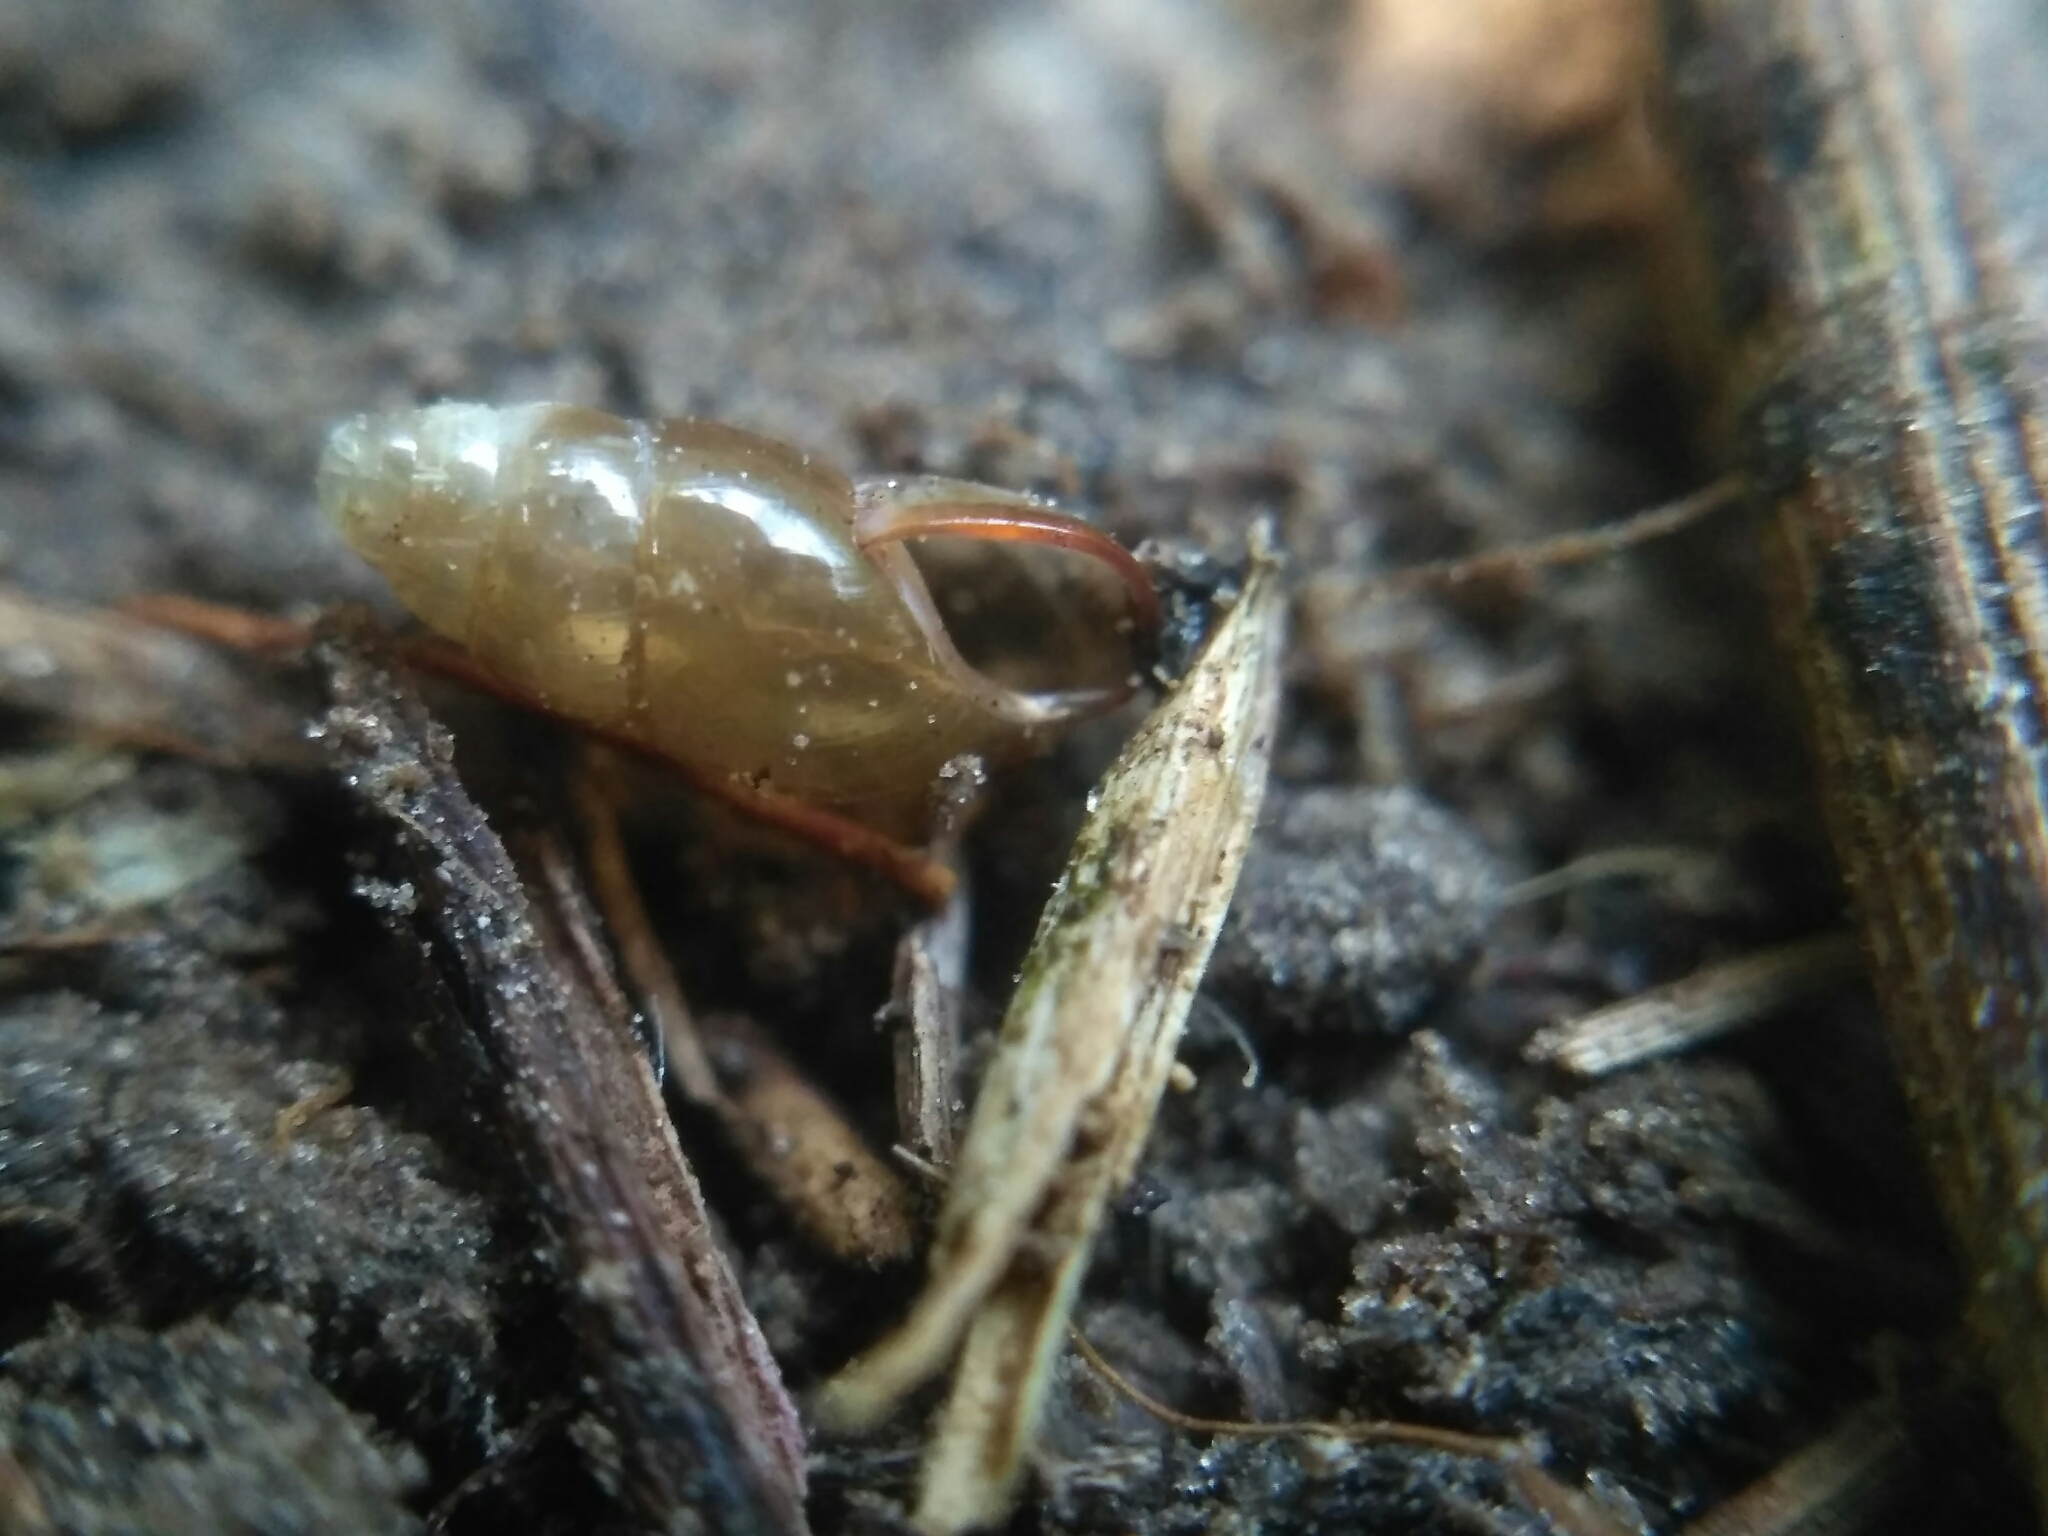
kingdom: Animalia
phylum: Mollusca
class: Gastropoda
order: Stylommatophora
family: Cochlicopidae
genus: Cochlicopa
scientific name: Cochlicopa lubricella
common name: Lesser slippery moss snail
